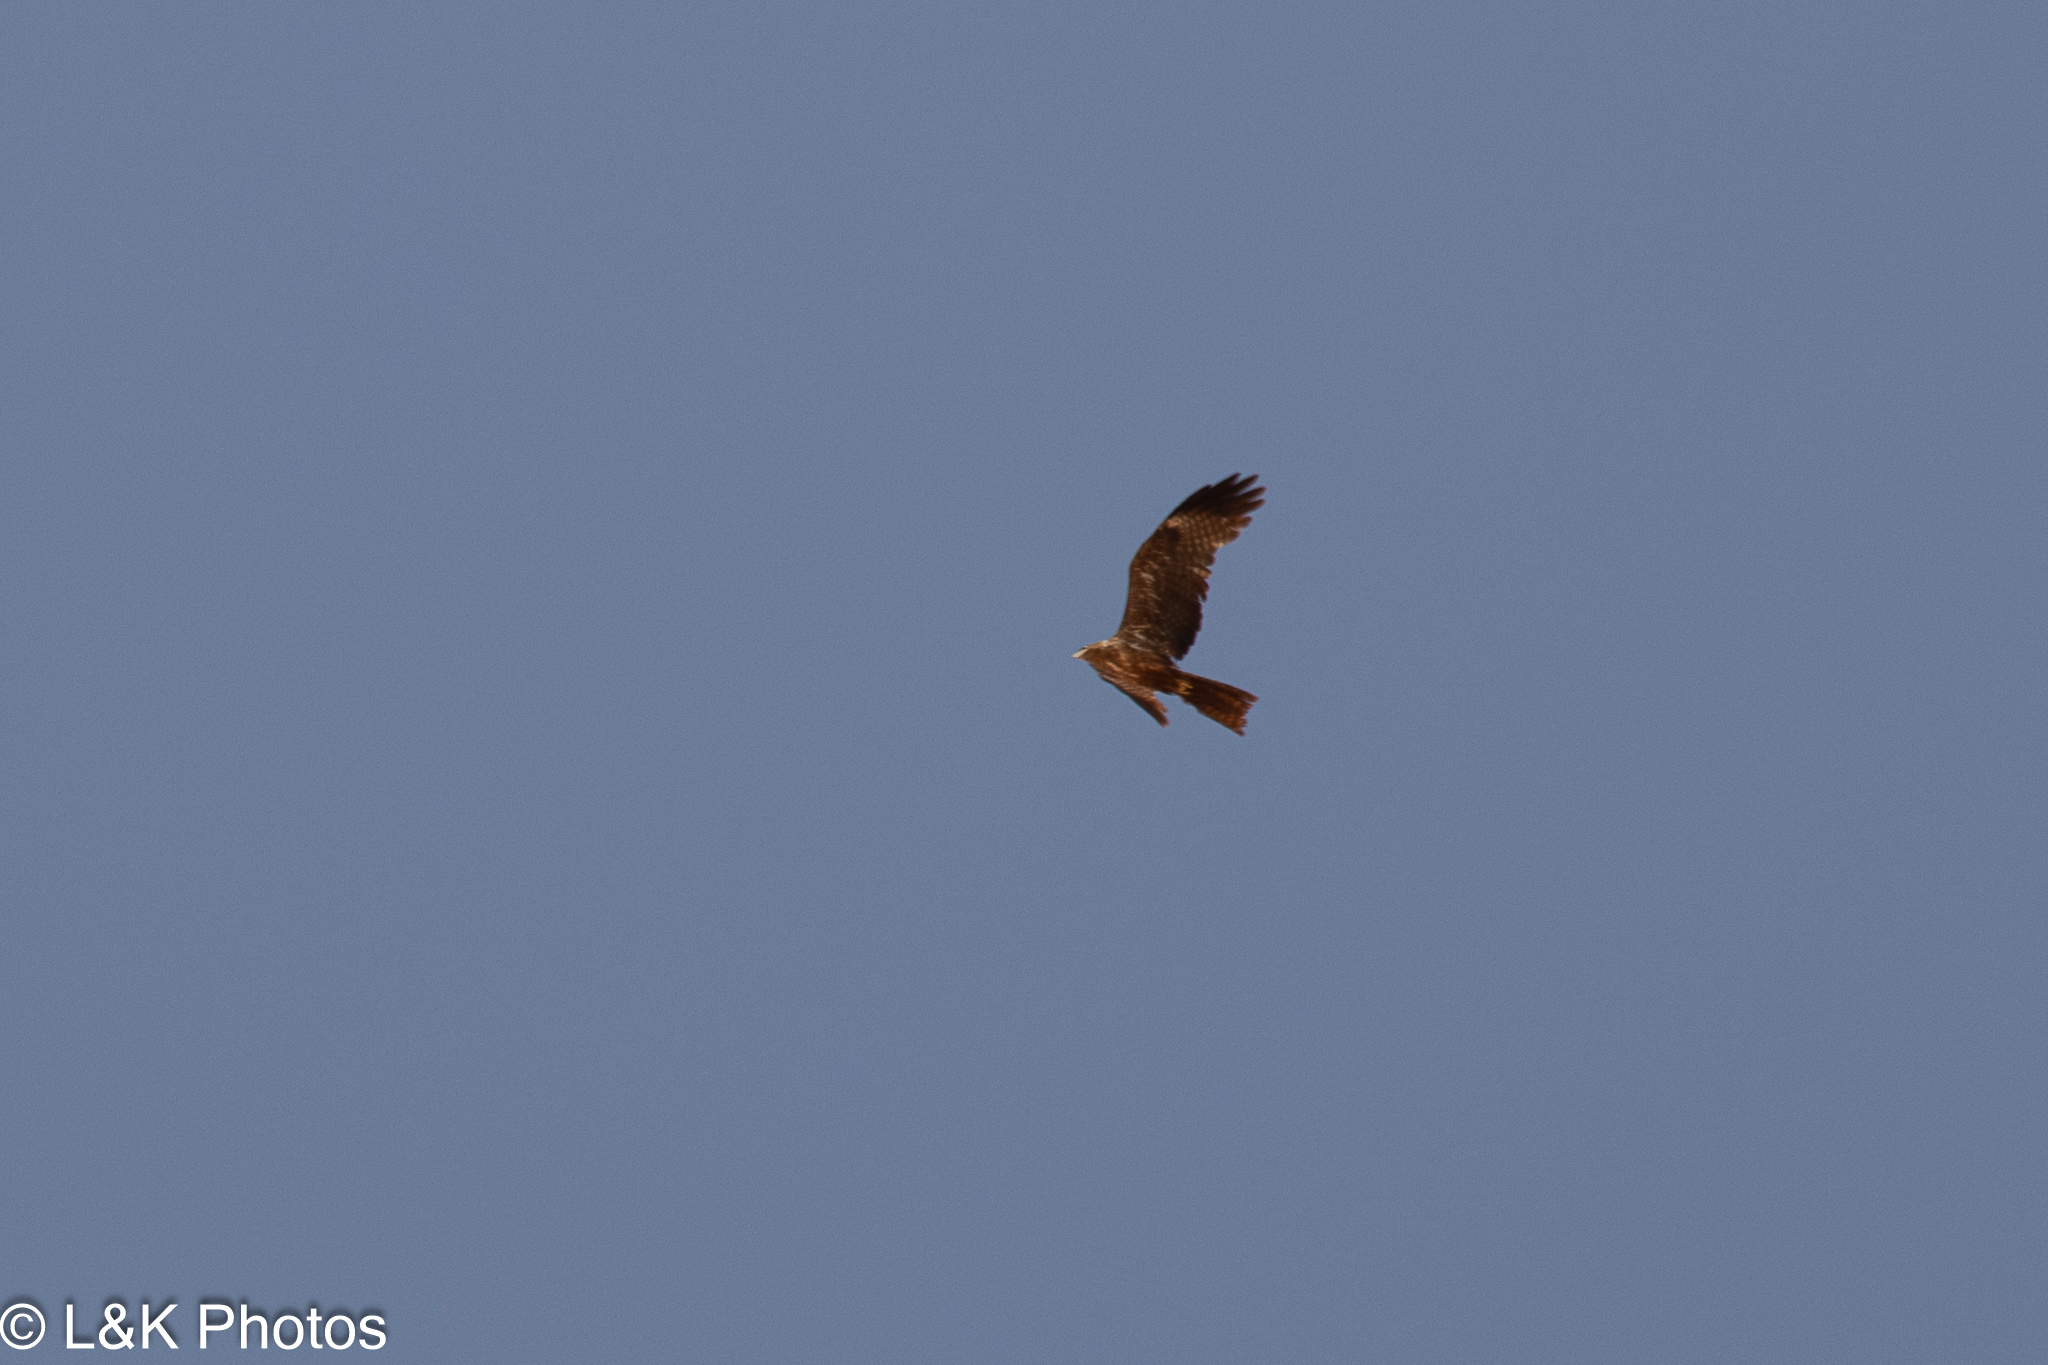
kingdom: Animalia
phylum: Chordata
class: Aves
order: Accipitriformes
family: Accipitridae
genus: Milvus
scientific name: Milvus aegyptius
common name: Yellow-billed kite
